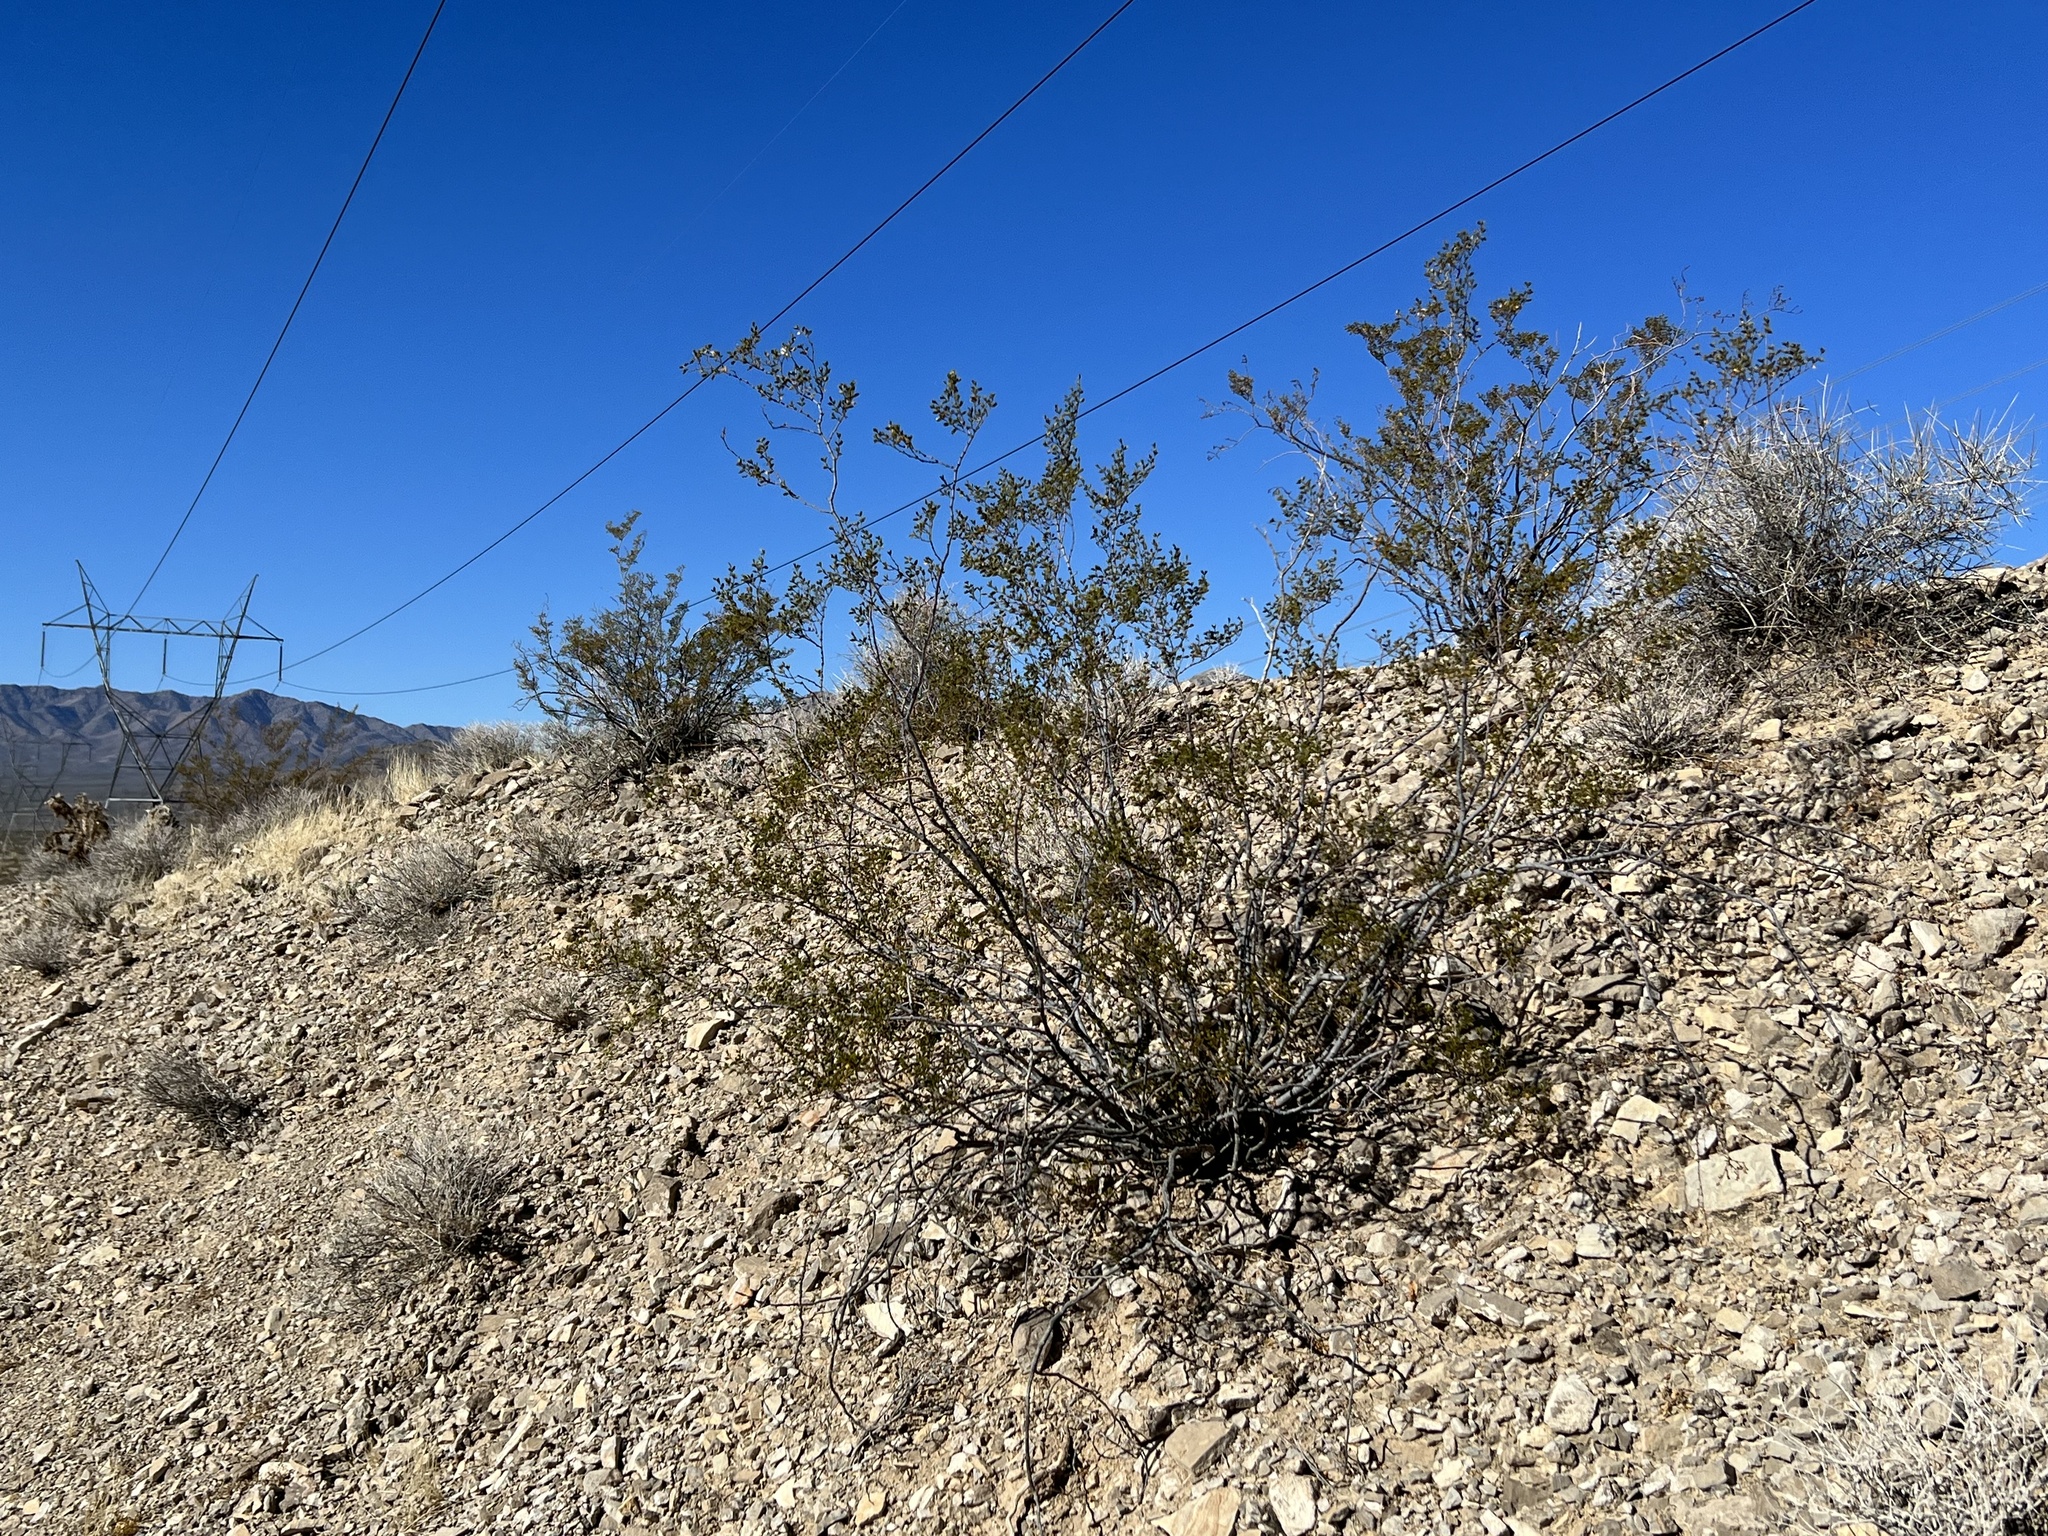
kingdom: Plantae
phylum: Tracheophyta
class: Magnoliopsida
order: Zygophyllales
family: Zygophyllaceae
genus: Larrea
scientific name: Larrea tridentata
